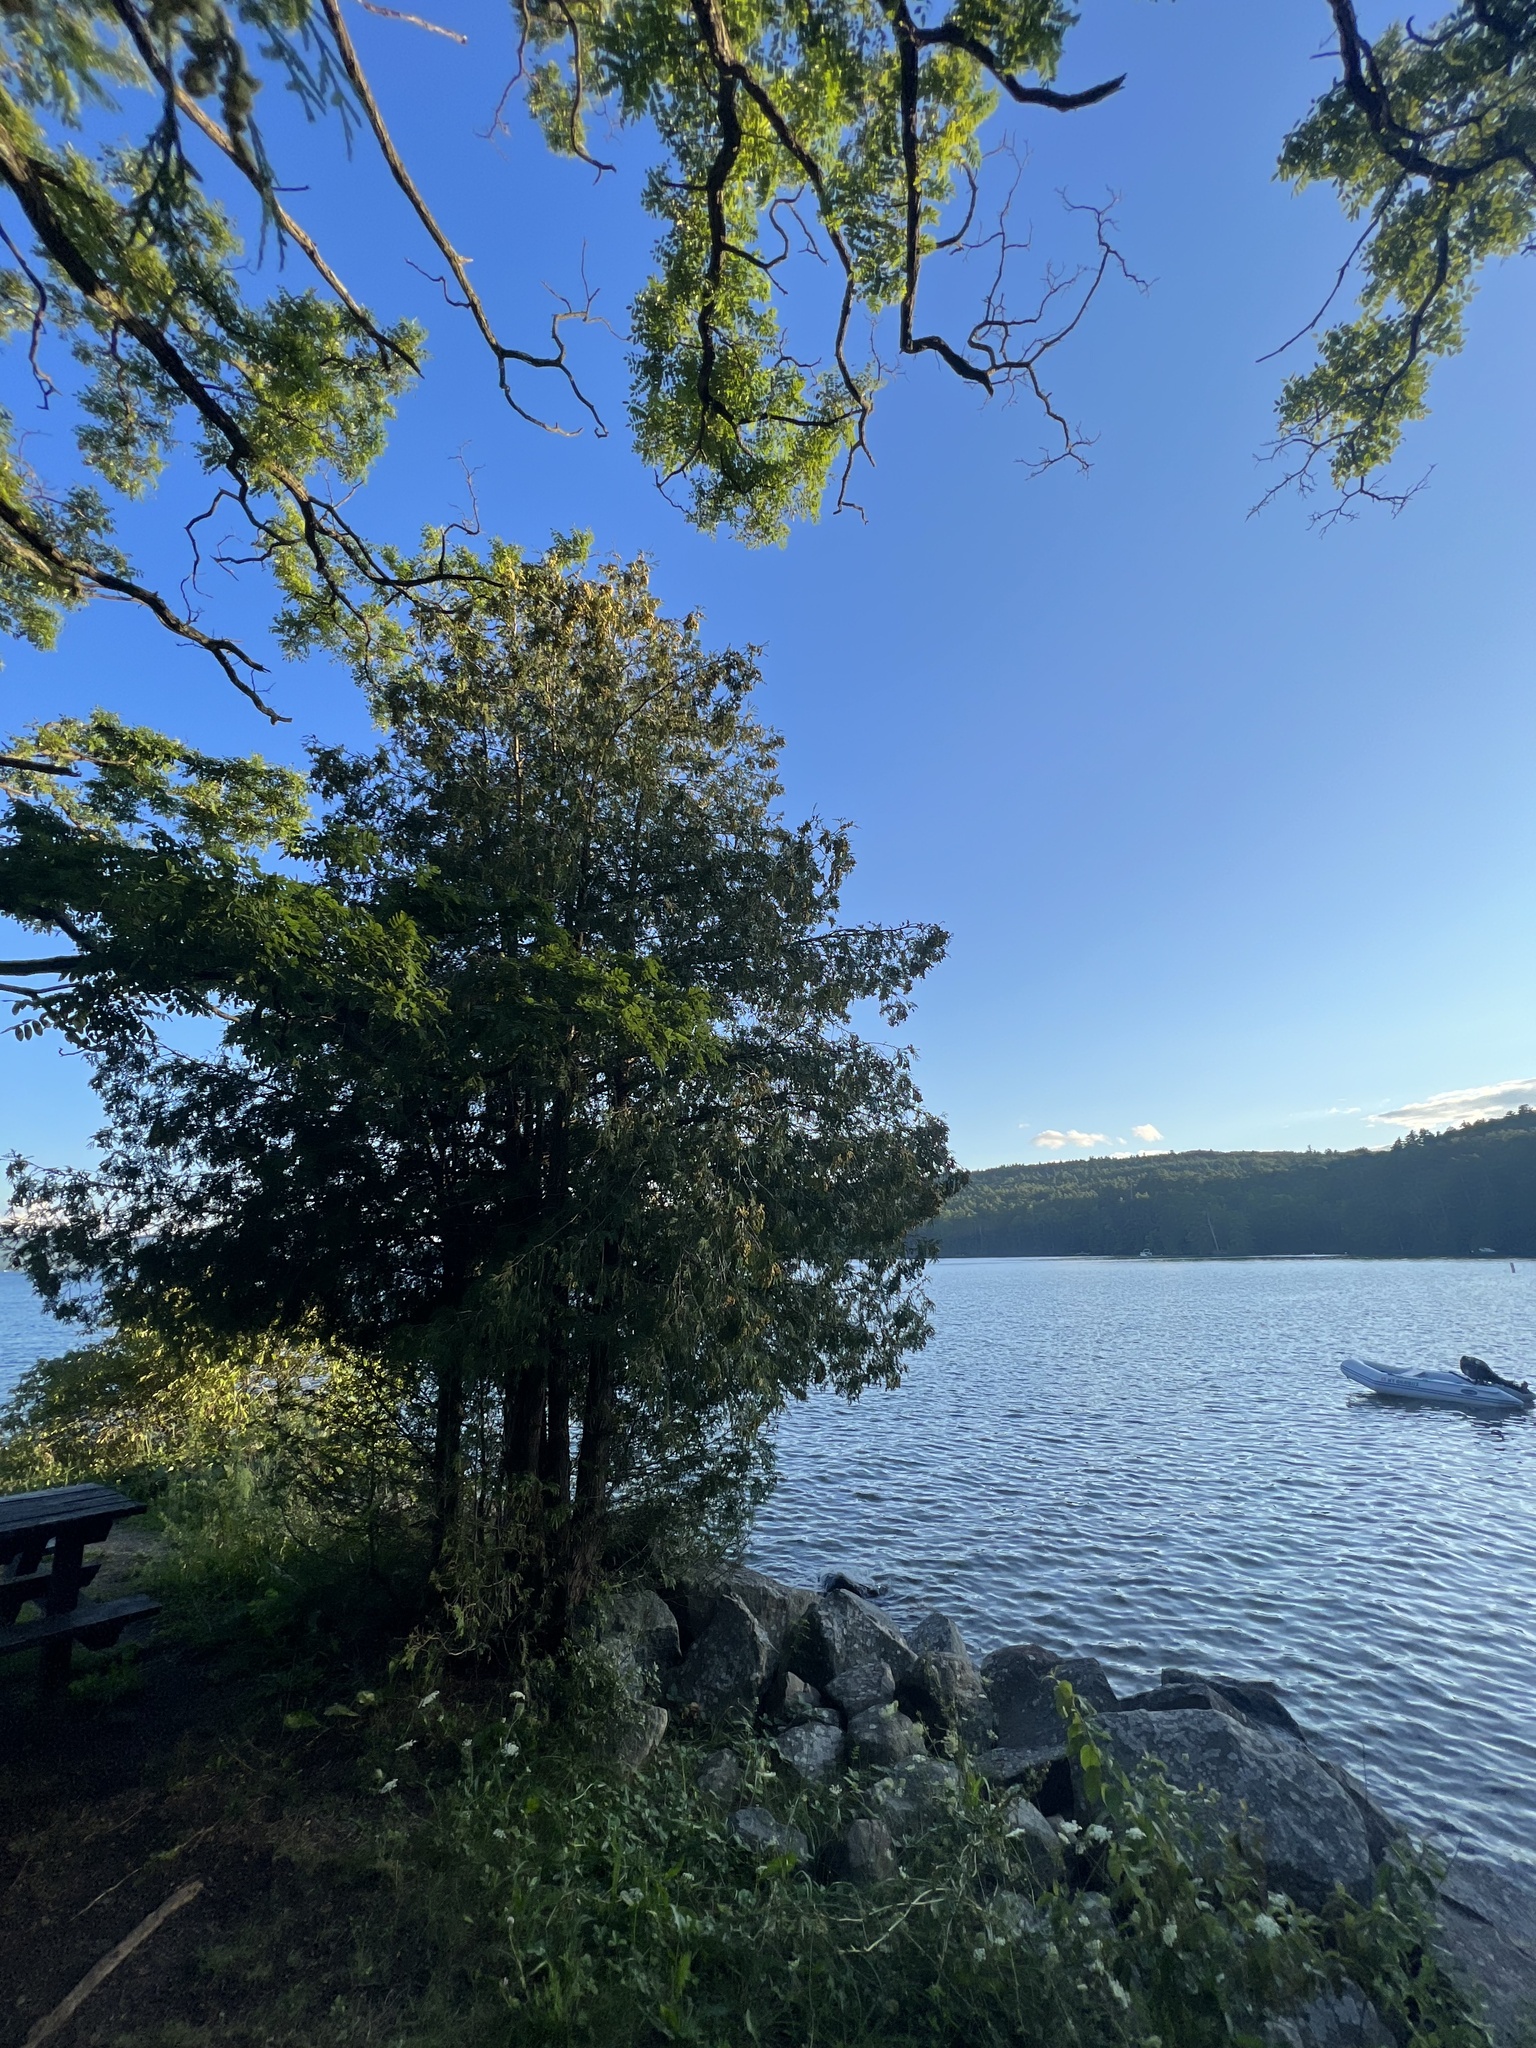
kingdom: Plantae
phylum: Tracheophyta
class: Pinopsida
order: Pinales
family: Cupressaceae
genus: Thuja
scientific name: Thuja occidentalis
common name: Northern white-cedar
